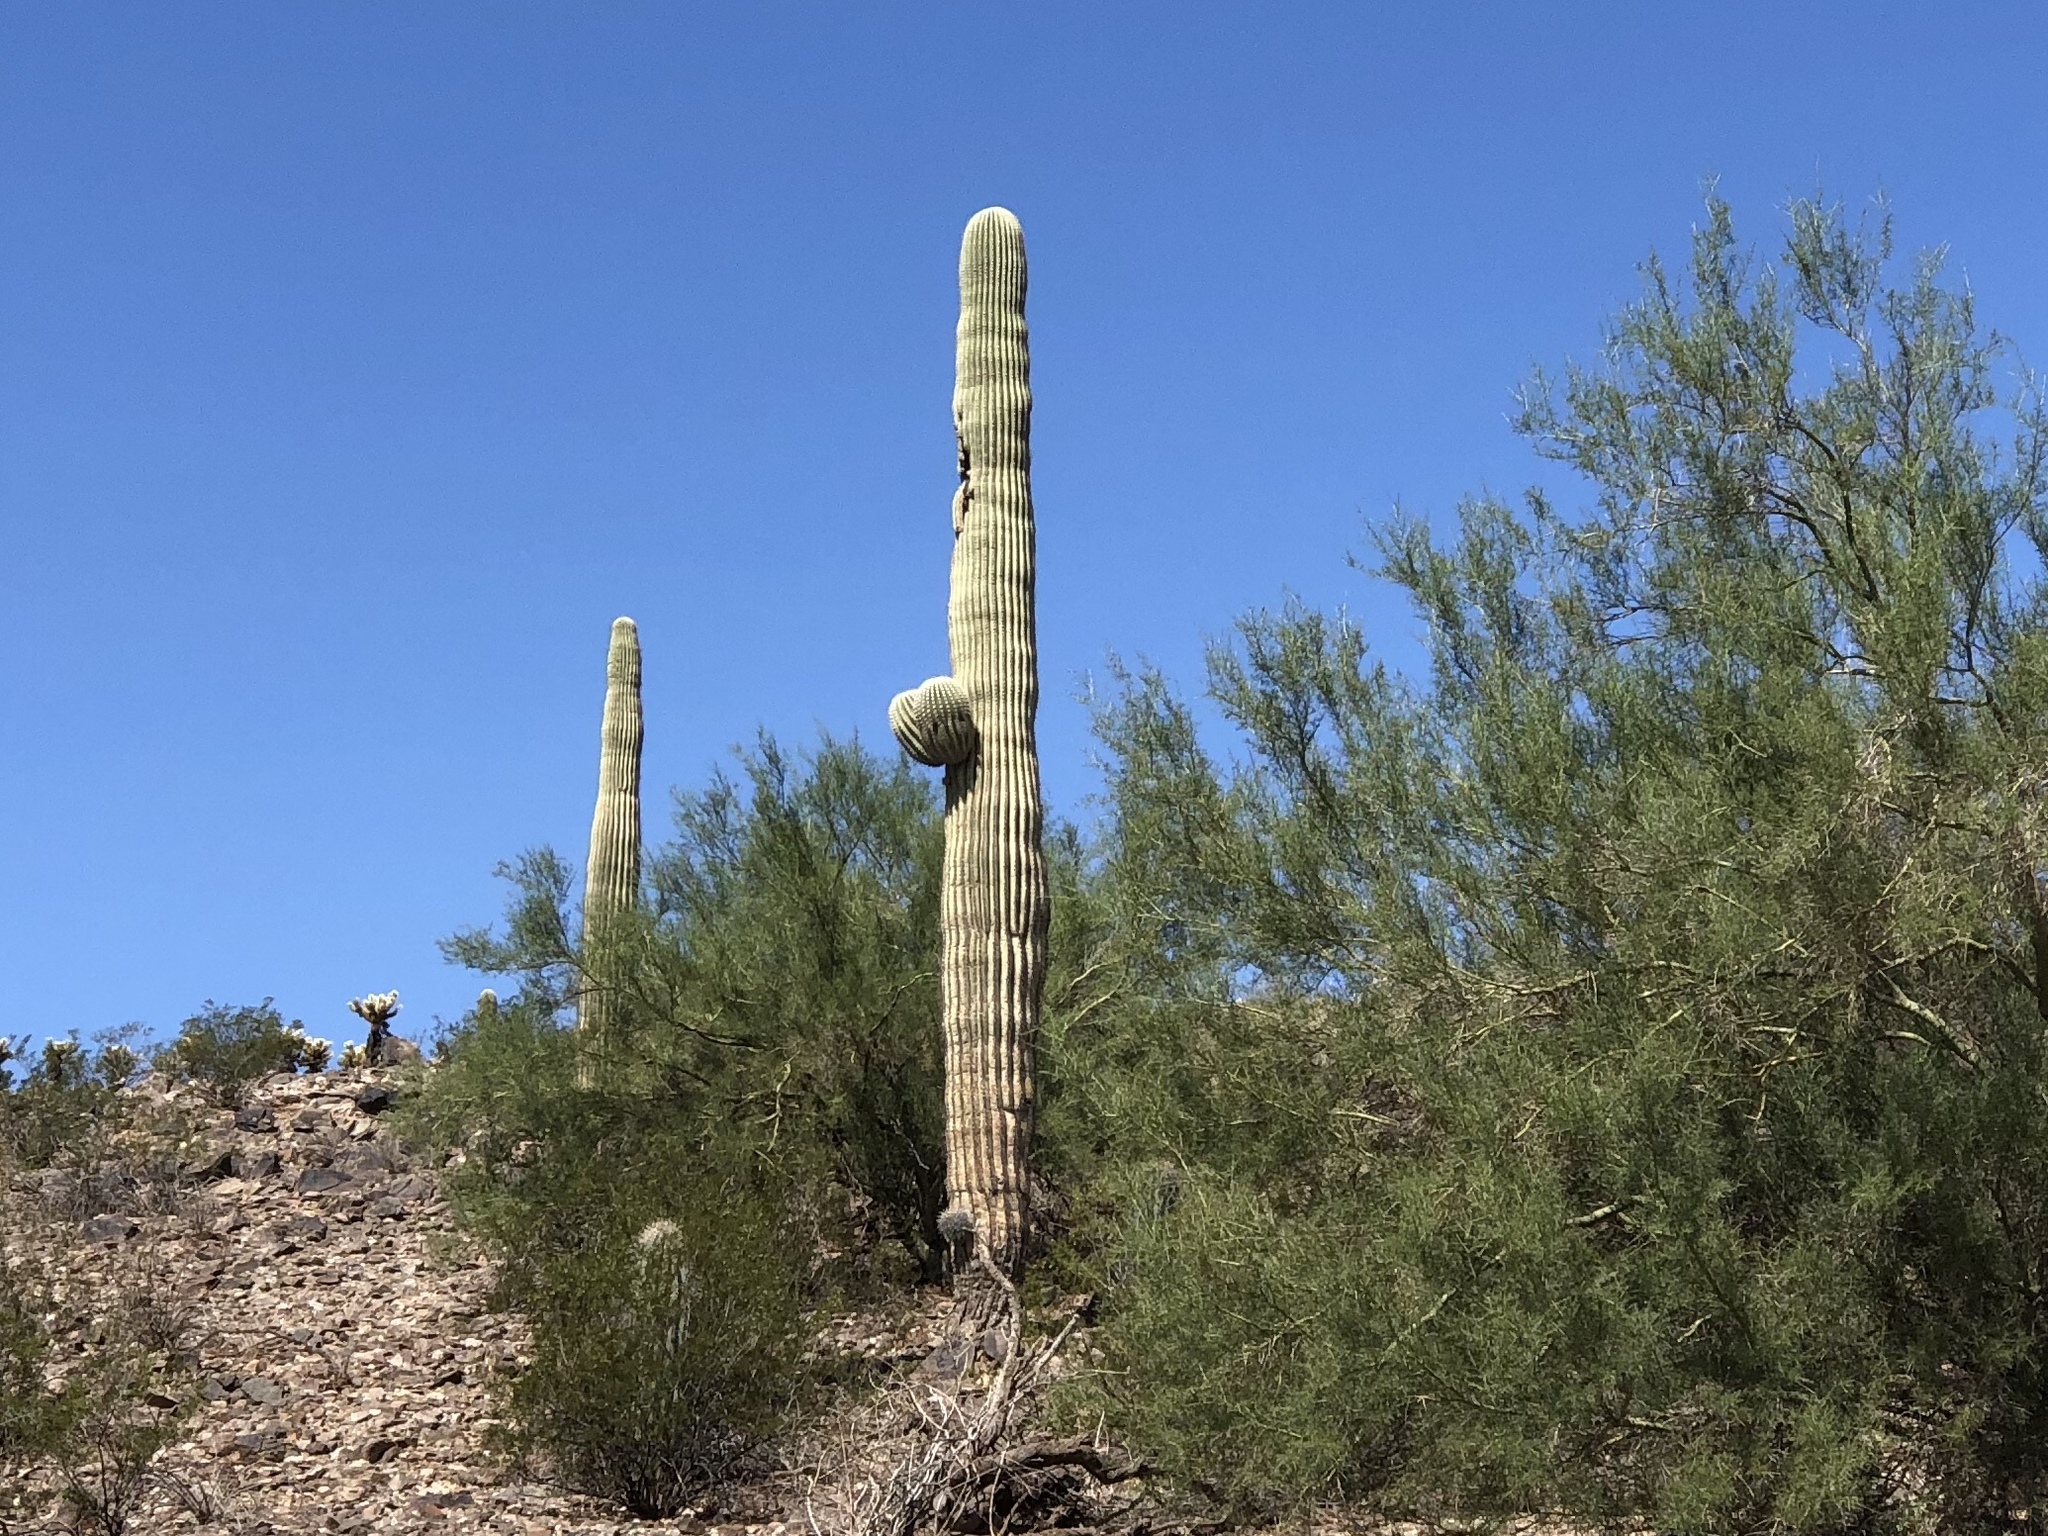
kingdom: Plantae
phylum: Tracheophyta
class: Magnoliopsida
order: Caryophyllales
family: Cactaceae
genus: Carnegiea
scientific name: Carnegiea gigantea
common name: Saguaro
